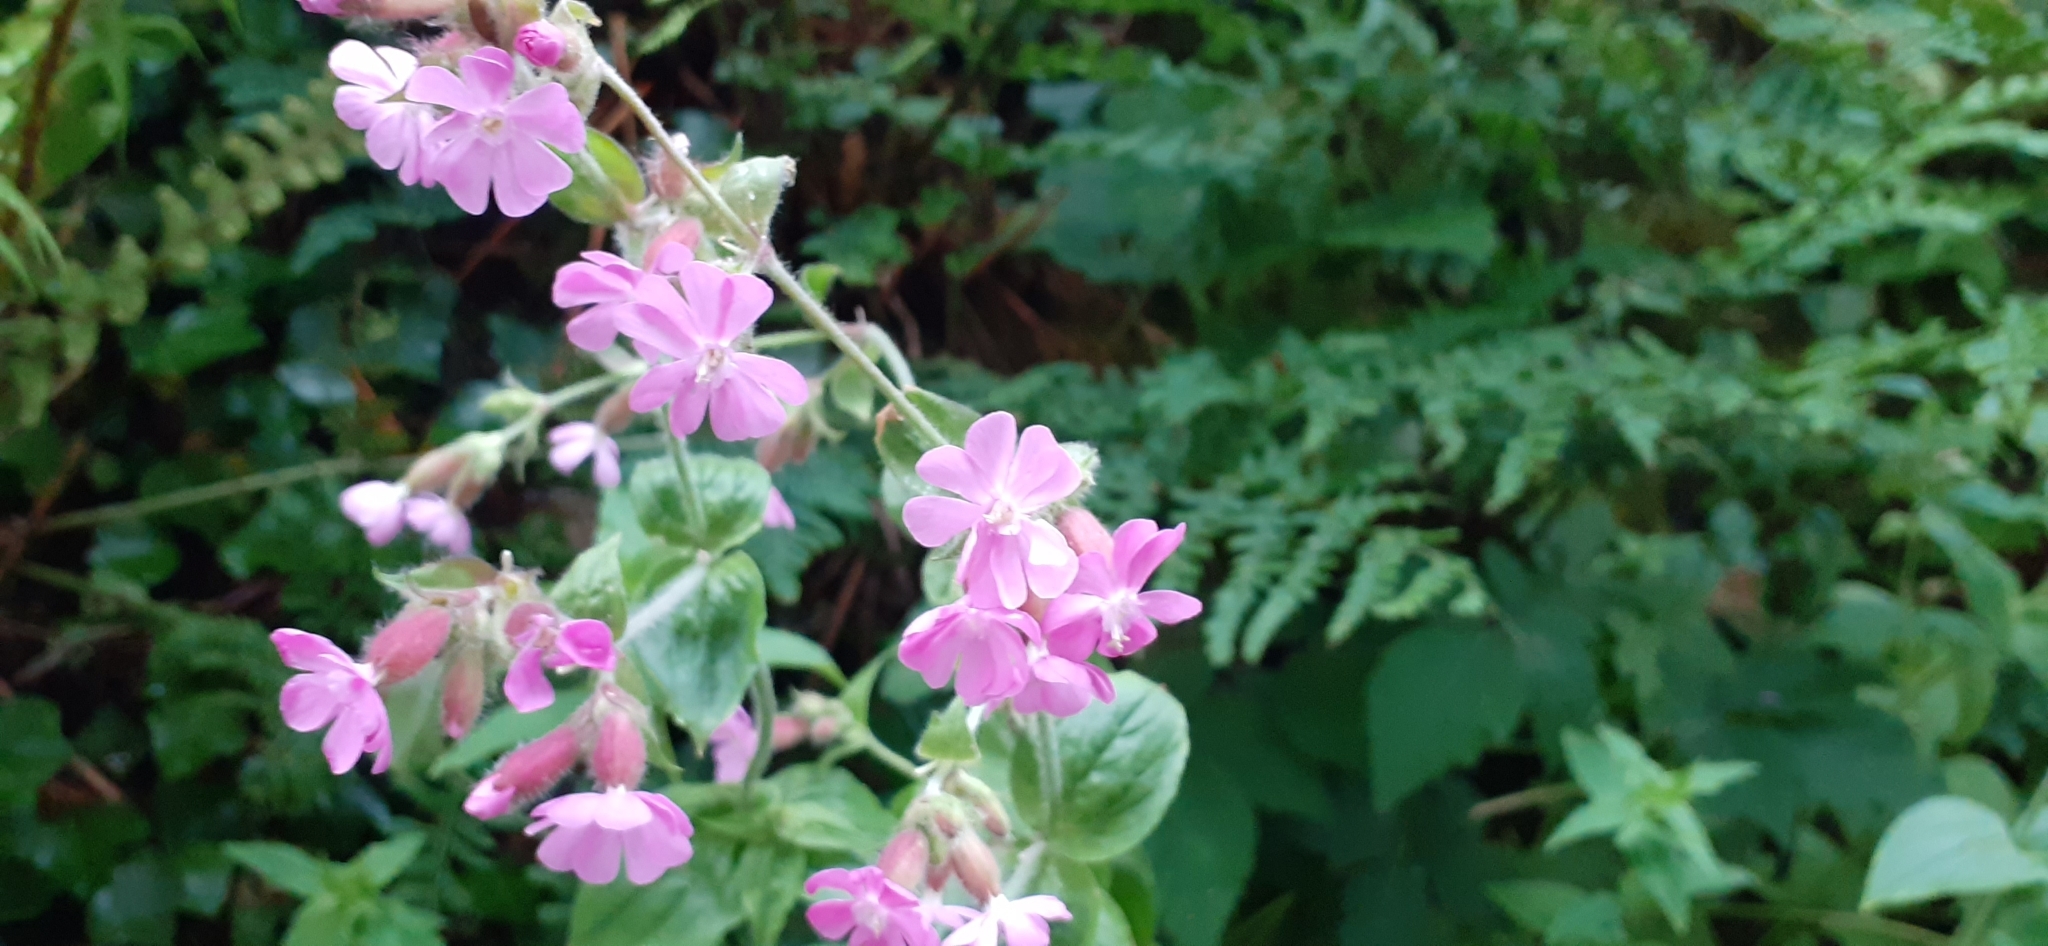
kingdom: Plantae
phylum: Tracheophyta
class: Magnoliopsida
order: Caryophyllales
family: Caryophyllaceae
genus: Silene
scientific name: Silene dioica
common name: Red campion
